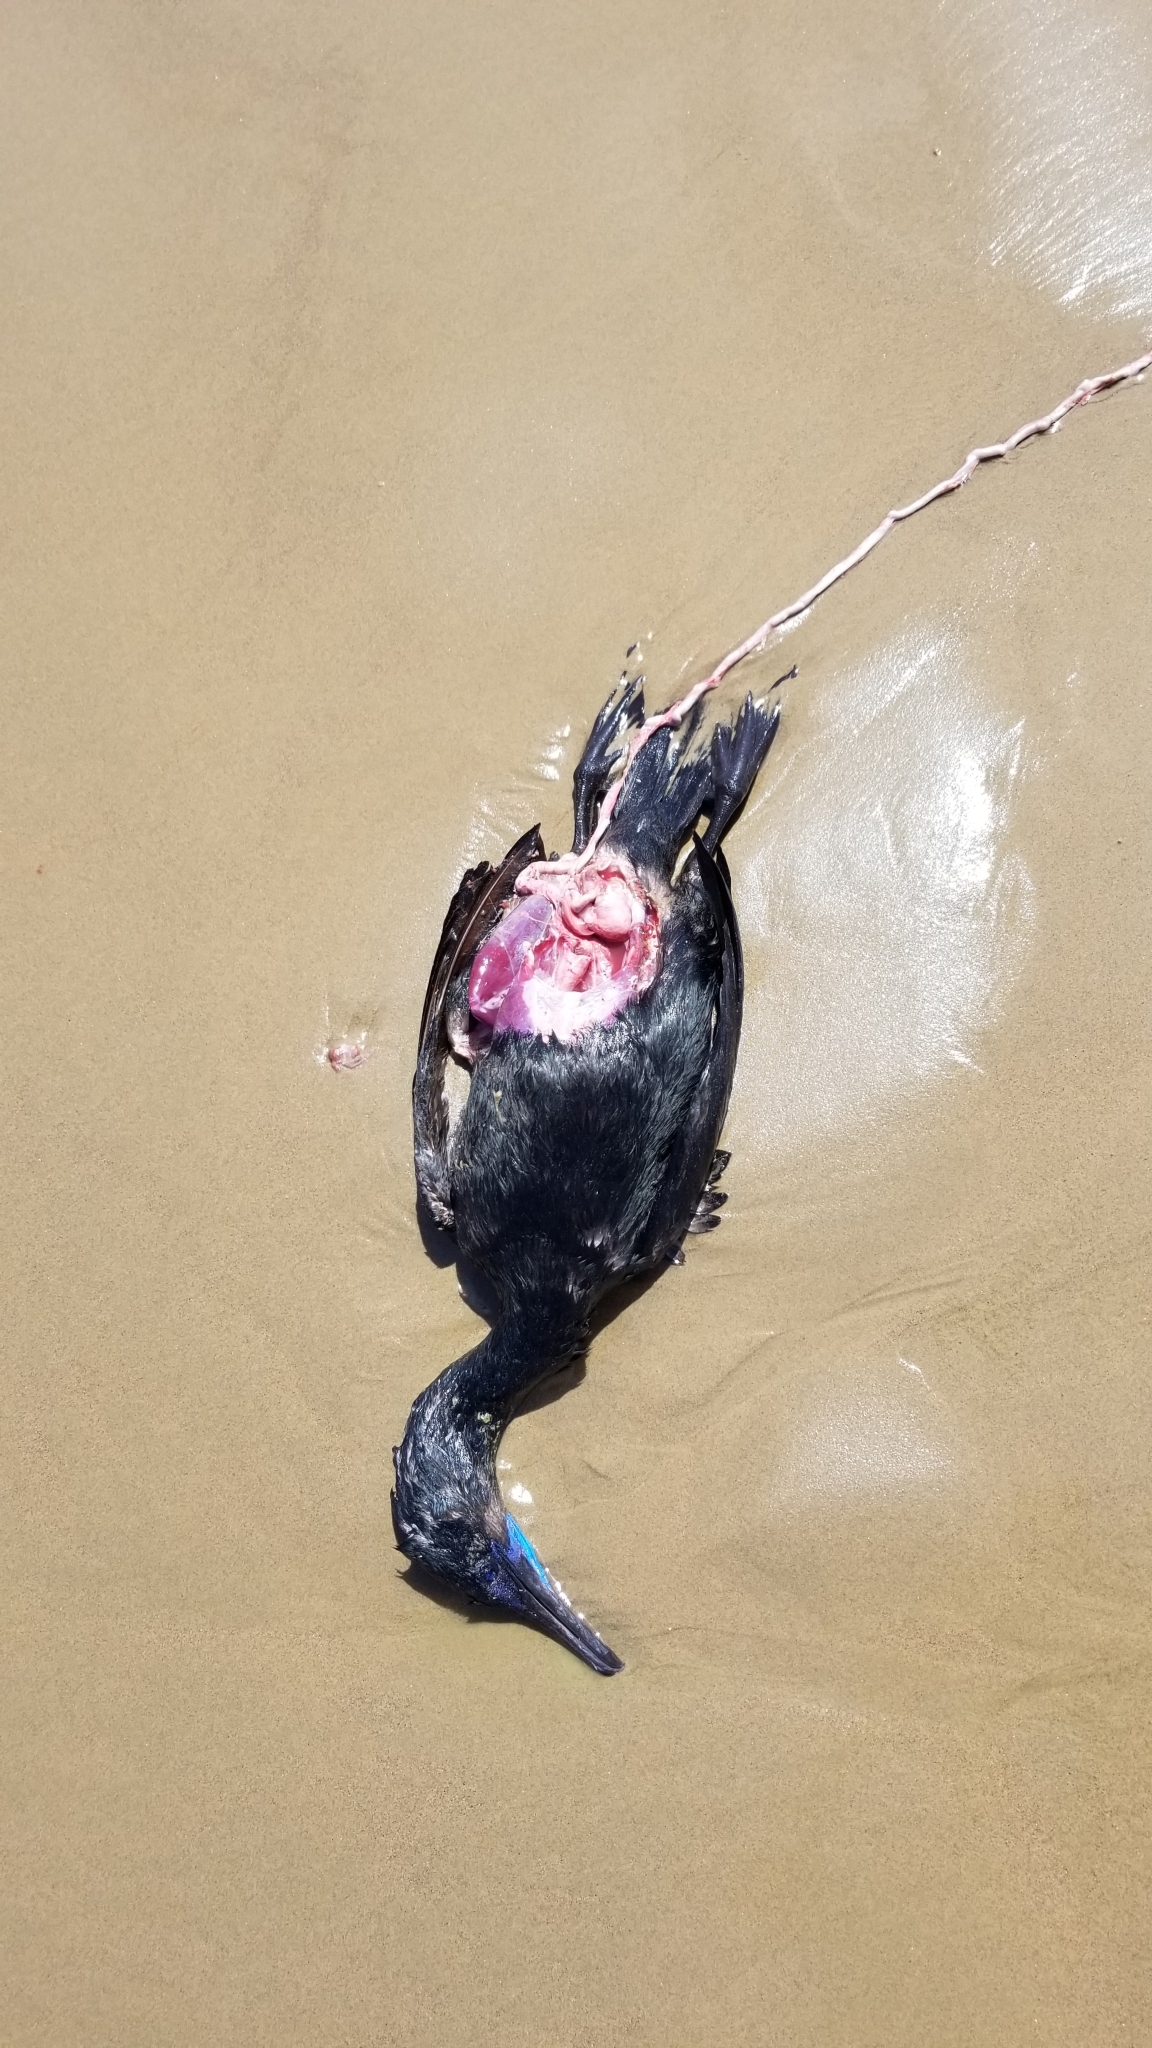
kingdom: Animalia
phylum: Chordata
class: Aves
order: Suliformes
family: Phalacrocoracidae
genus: Urile
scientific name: Urile penicillatus
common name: Brandt's cormorant
